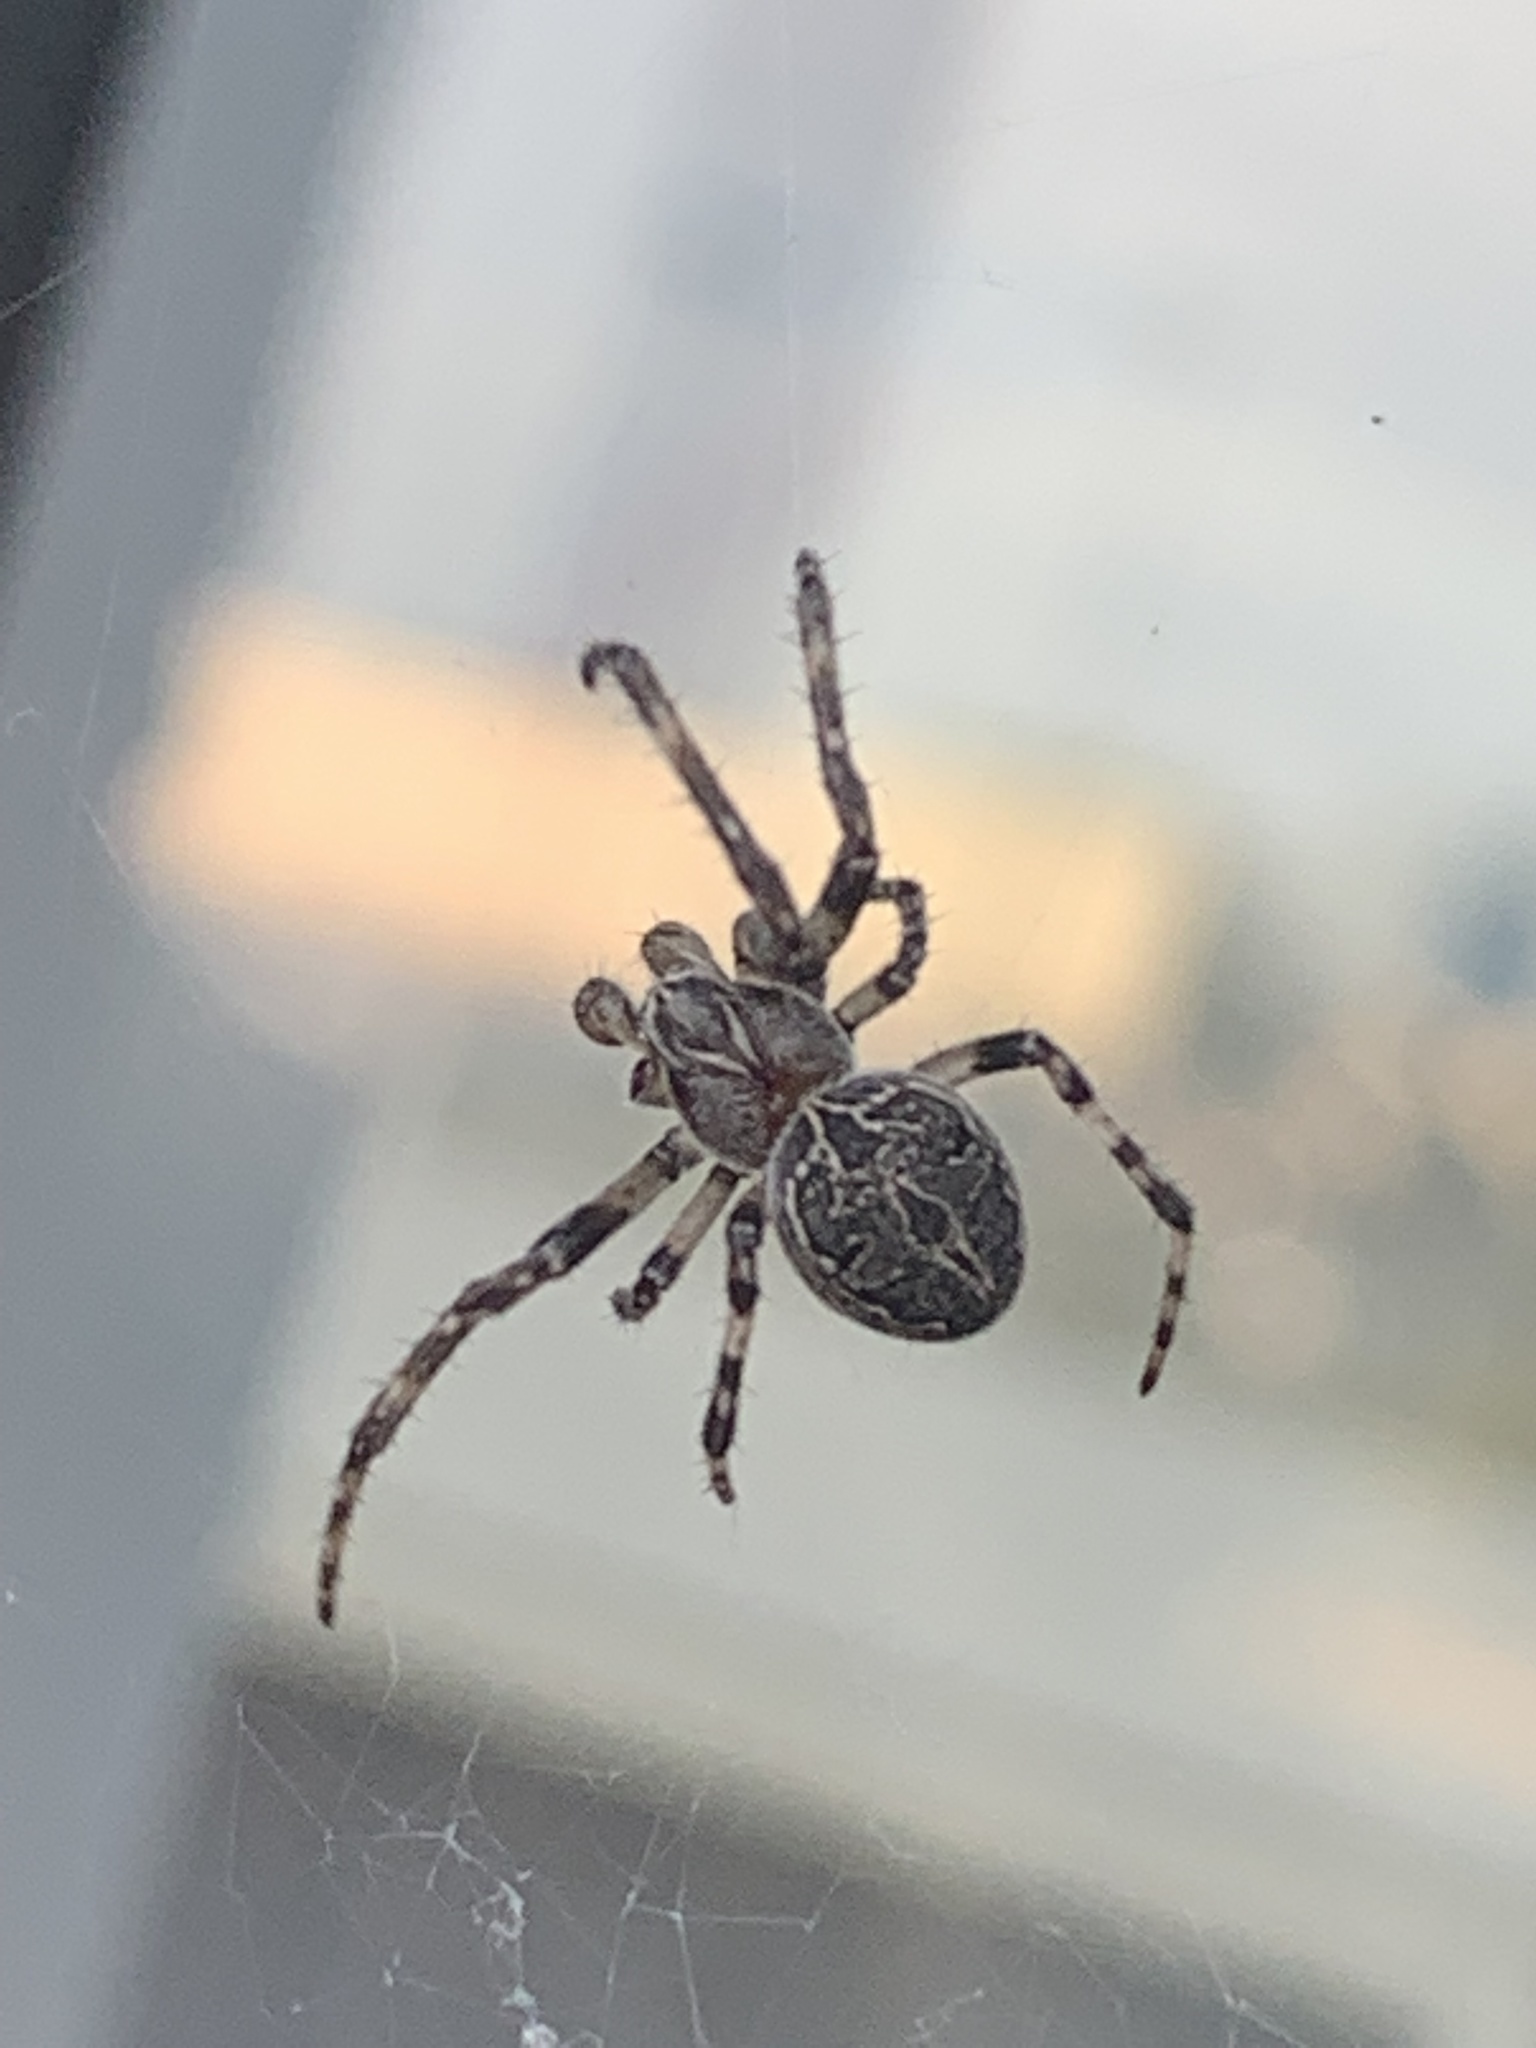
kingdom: Animalia
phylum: Arthropoda
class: Arachnida
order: Araneae
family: Araneidae
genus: Larinioides
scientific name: Larinioides sclopetarius
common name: Bridge orbweaver
